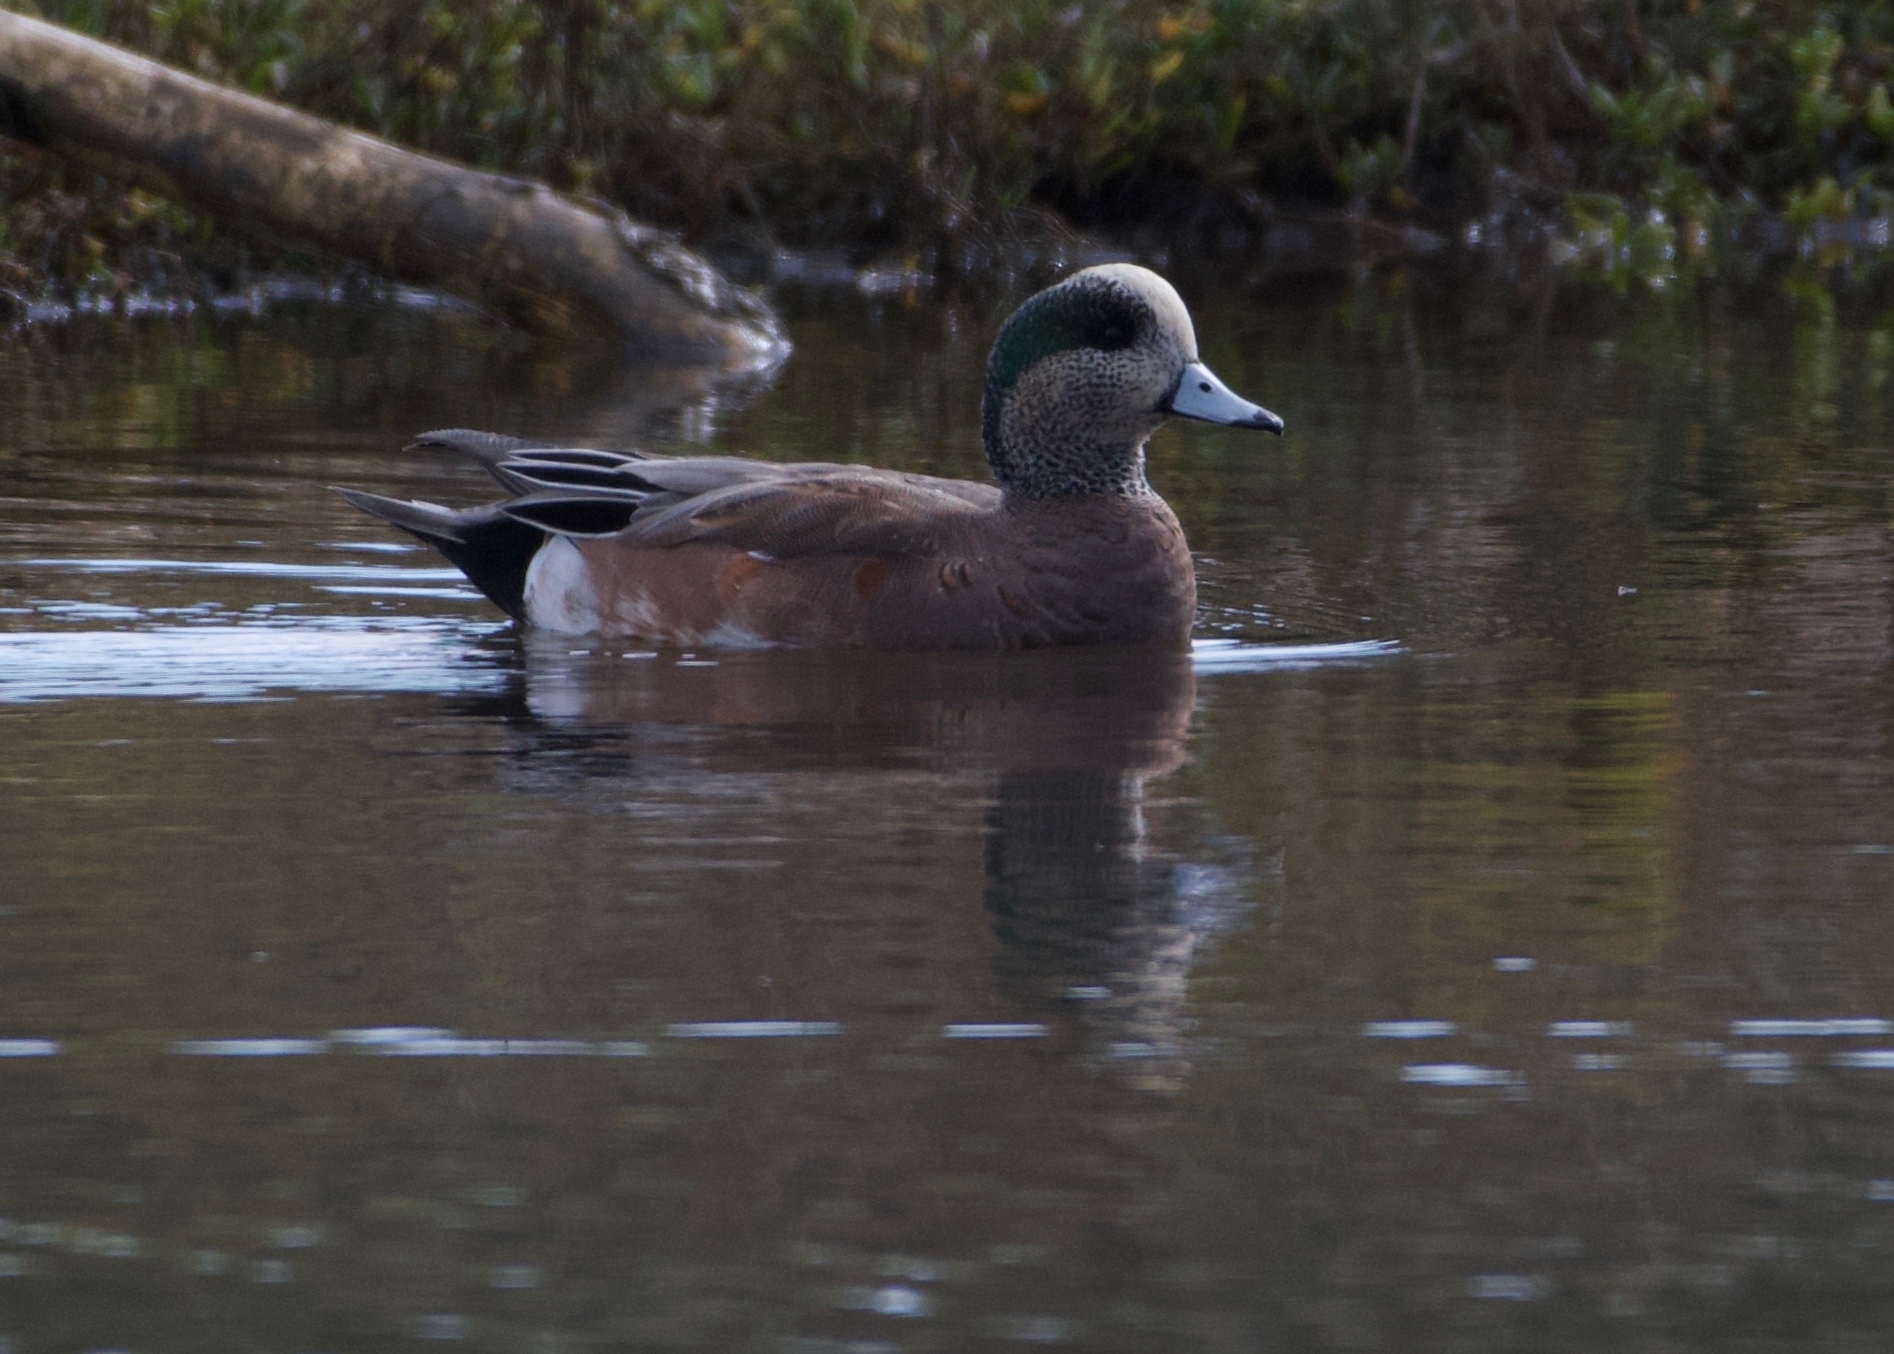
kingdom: Animalia
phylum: Chordata
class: Aves
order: Anseriformes
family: Anatidae
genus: Mareca
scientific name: Mareca americana
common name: American wigeon
